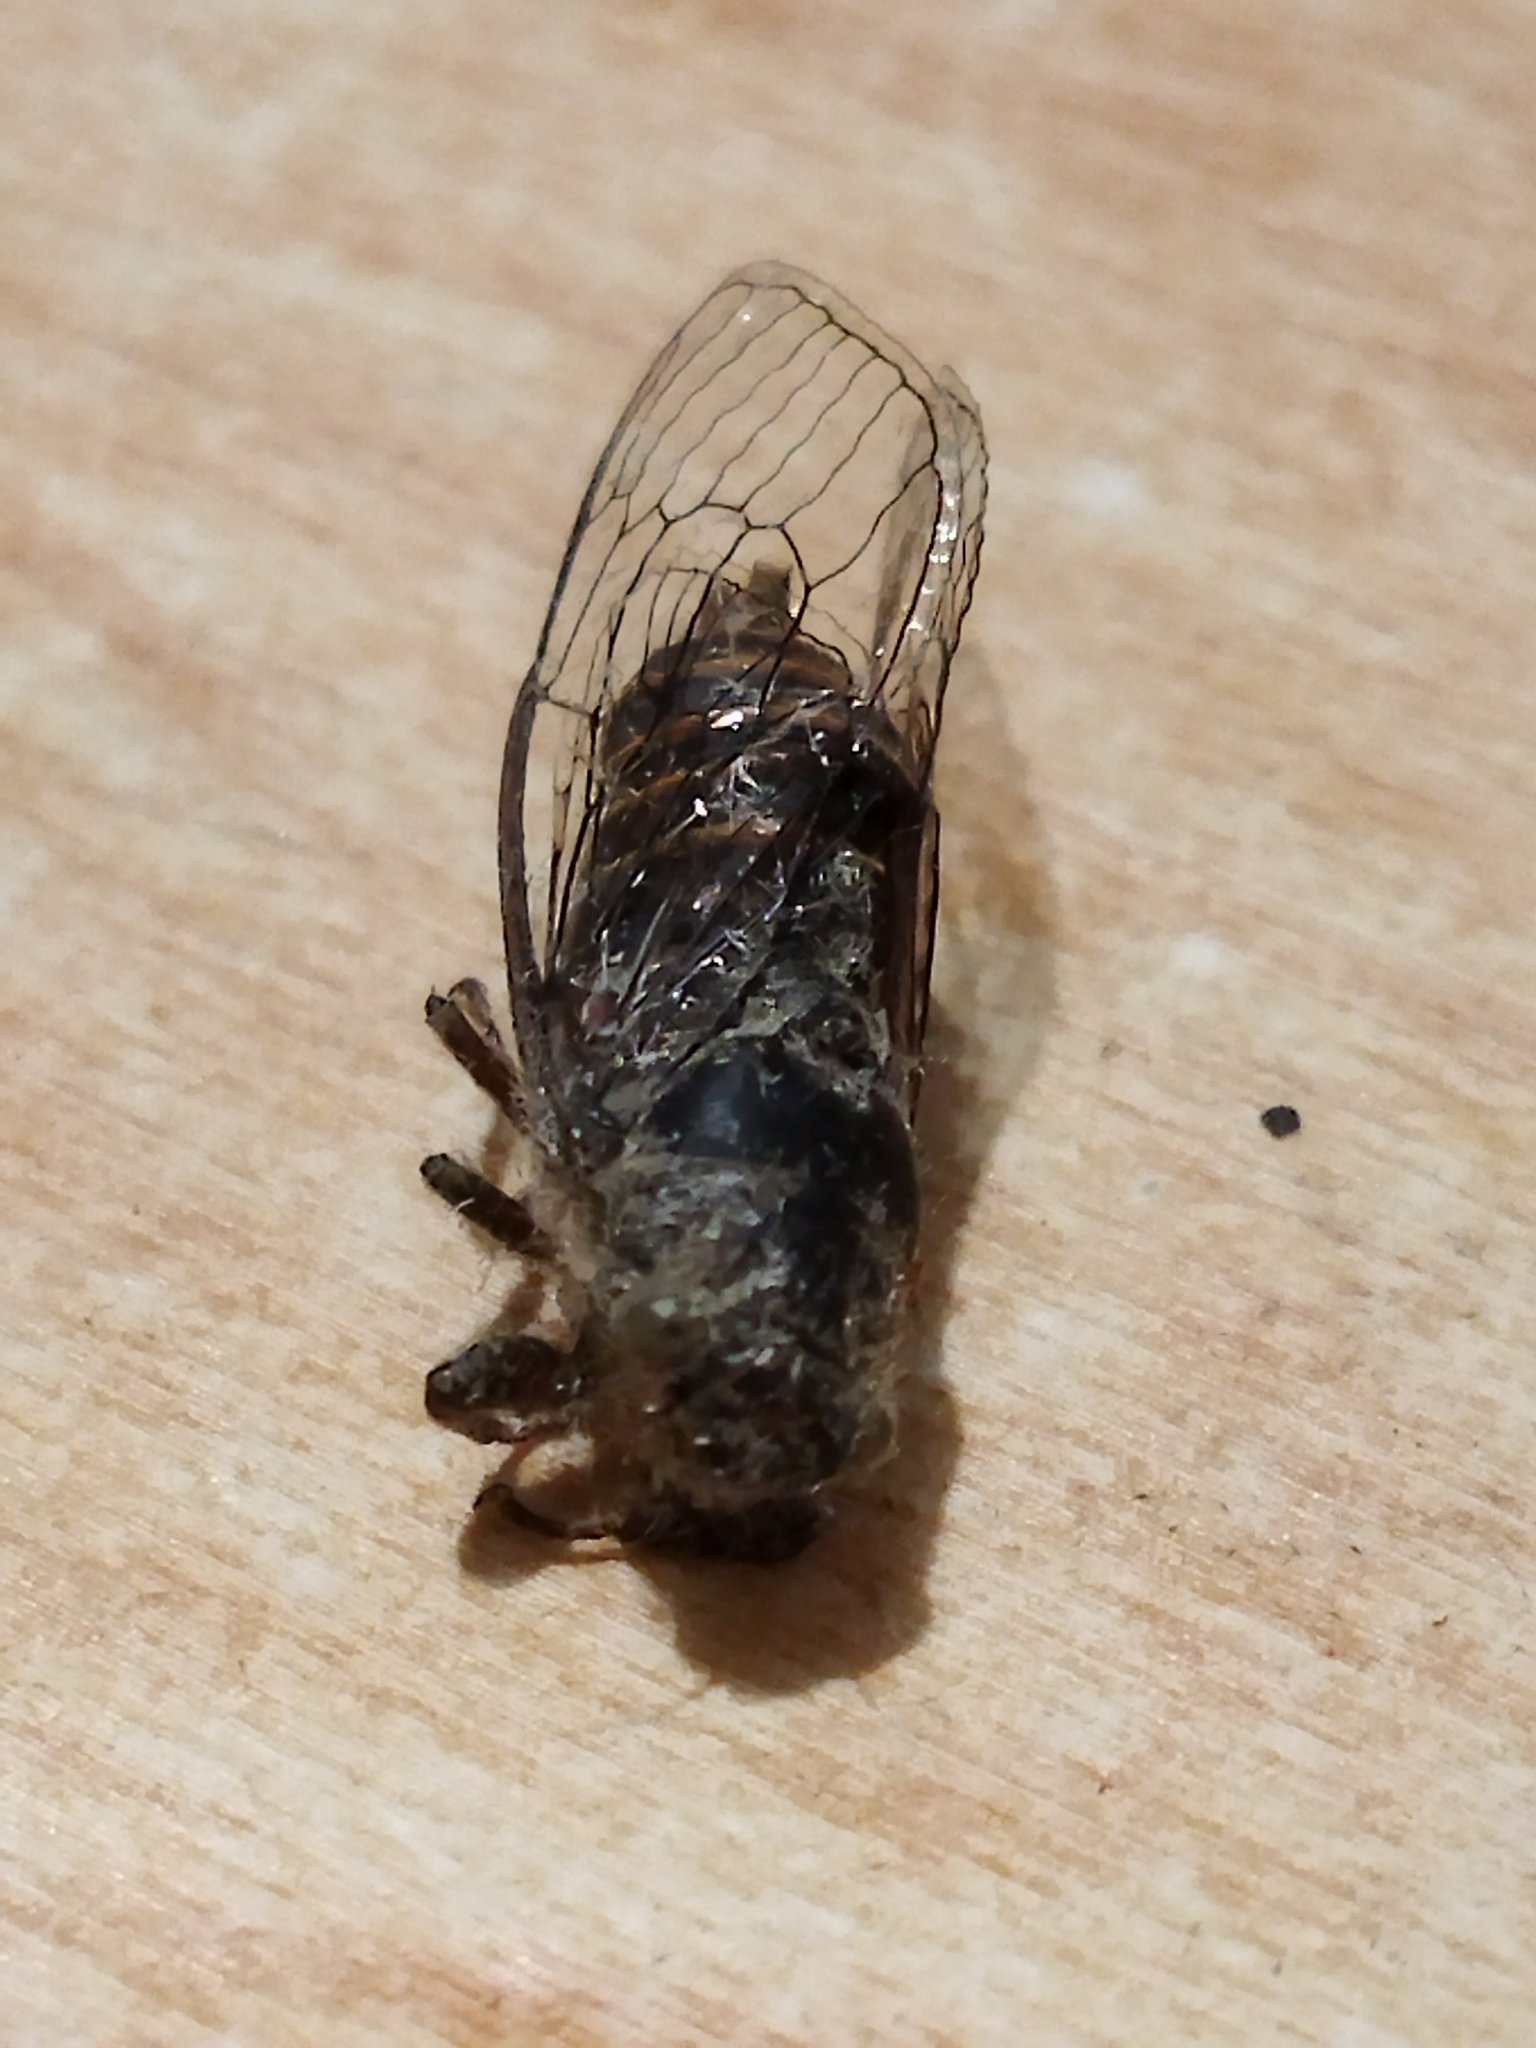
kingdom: Animalia
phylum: Arthropoda
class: Insecta
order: Hemiptera
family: Cicadidae
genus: Pagiphora
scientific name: Pagiphora annulata
